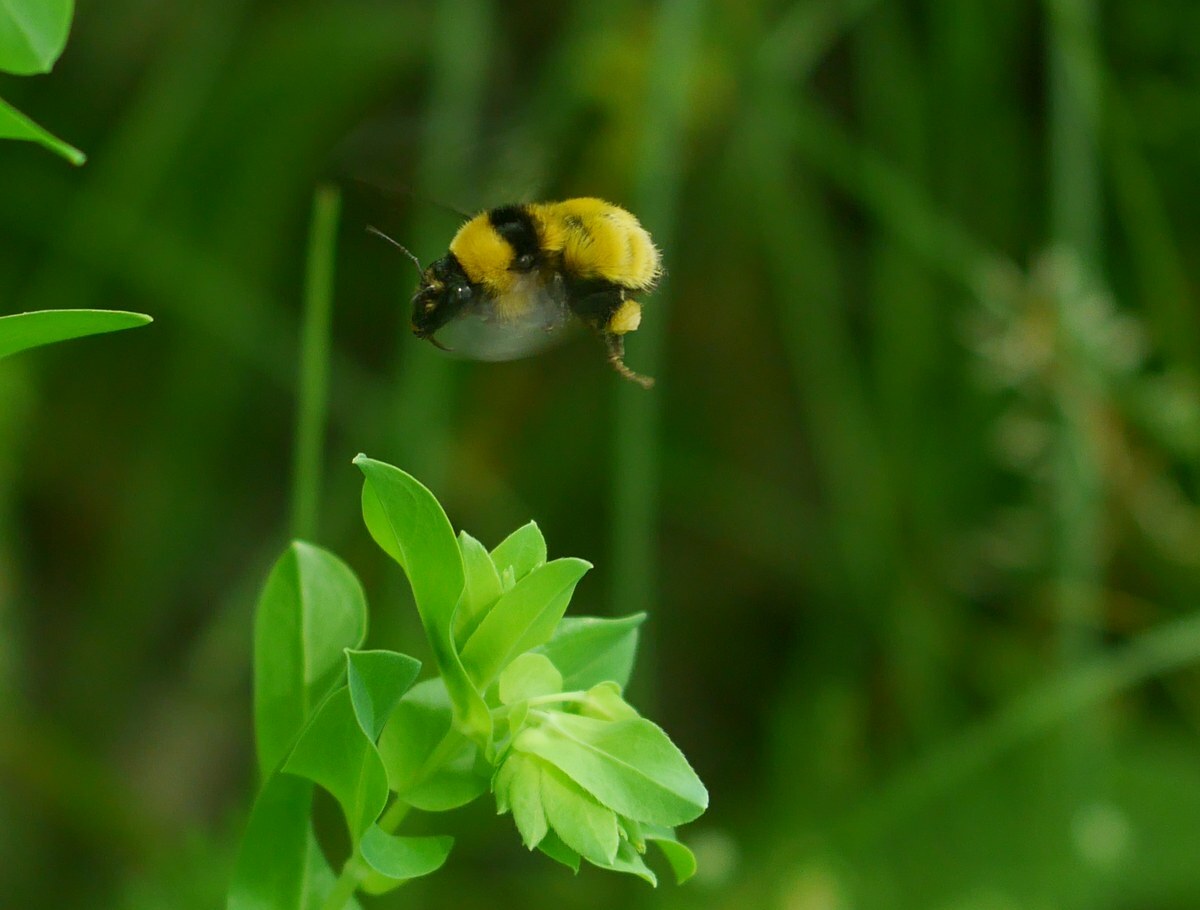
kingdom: Animalia
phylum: Arthropoda
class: Insecta
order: Hymenoptera
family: Apidae
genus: Bombus
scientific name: Bombus armeniacus
